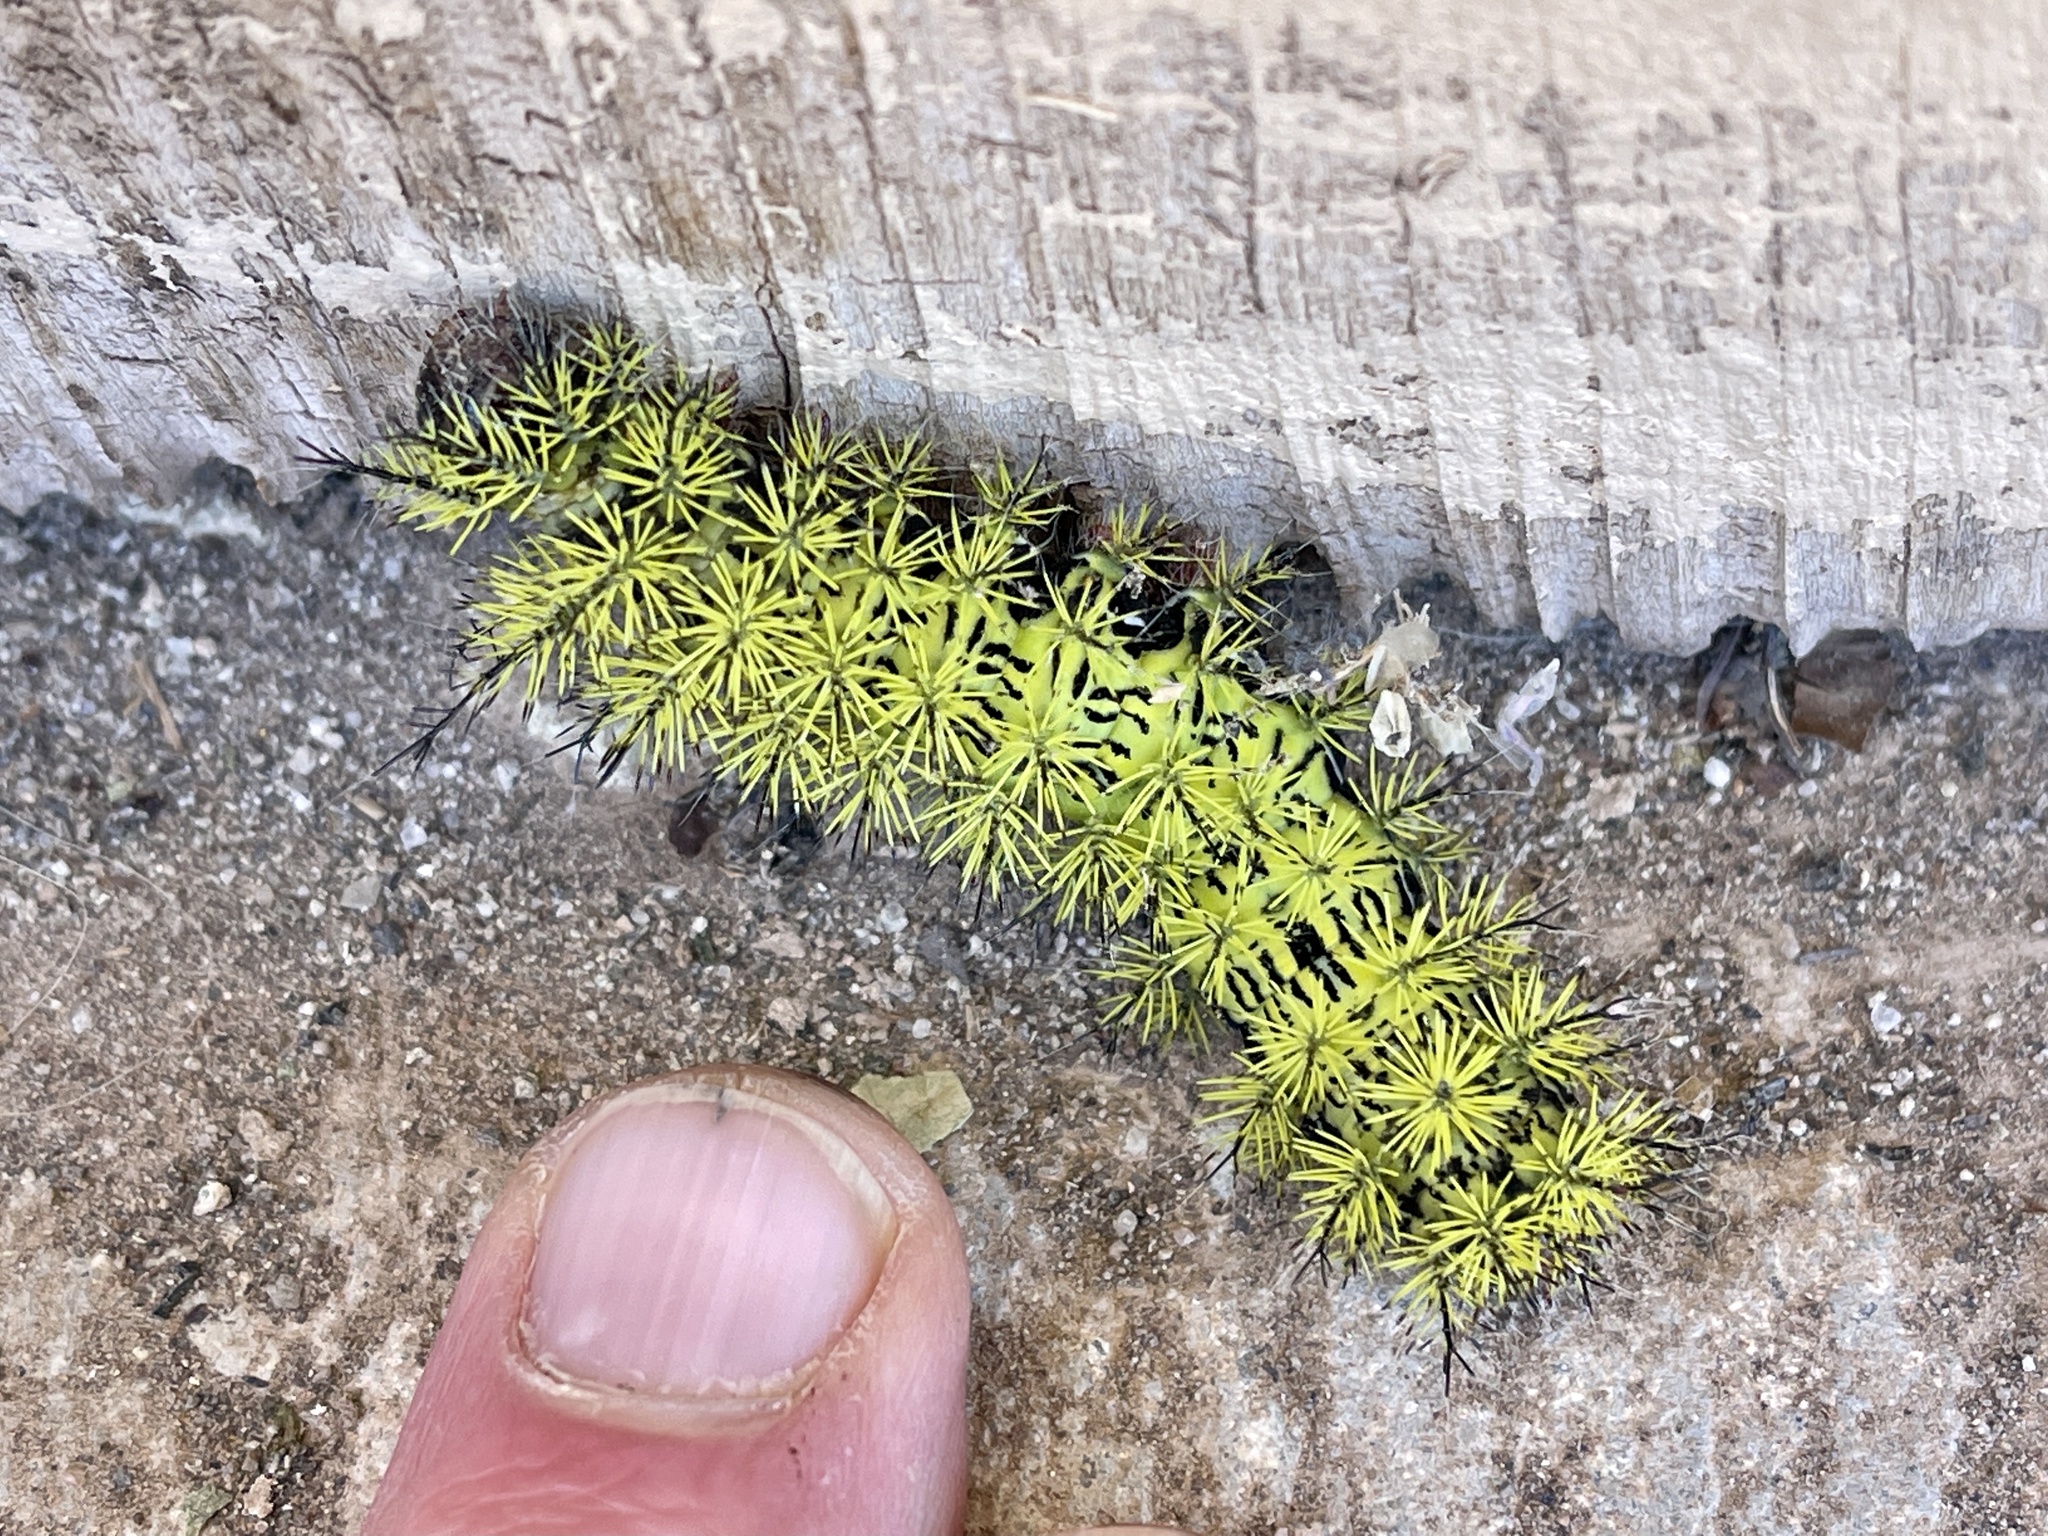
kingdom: Animalia
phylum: Arthropoda
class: Insecta
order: Lepidoptera
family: Saturniidae
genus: Automeris
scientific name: Automeris zephyria
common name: Zephyr eyed silkmoth
